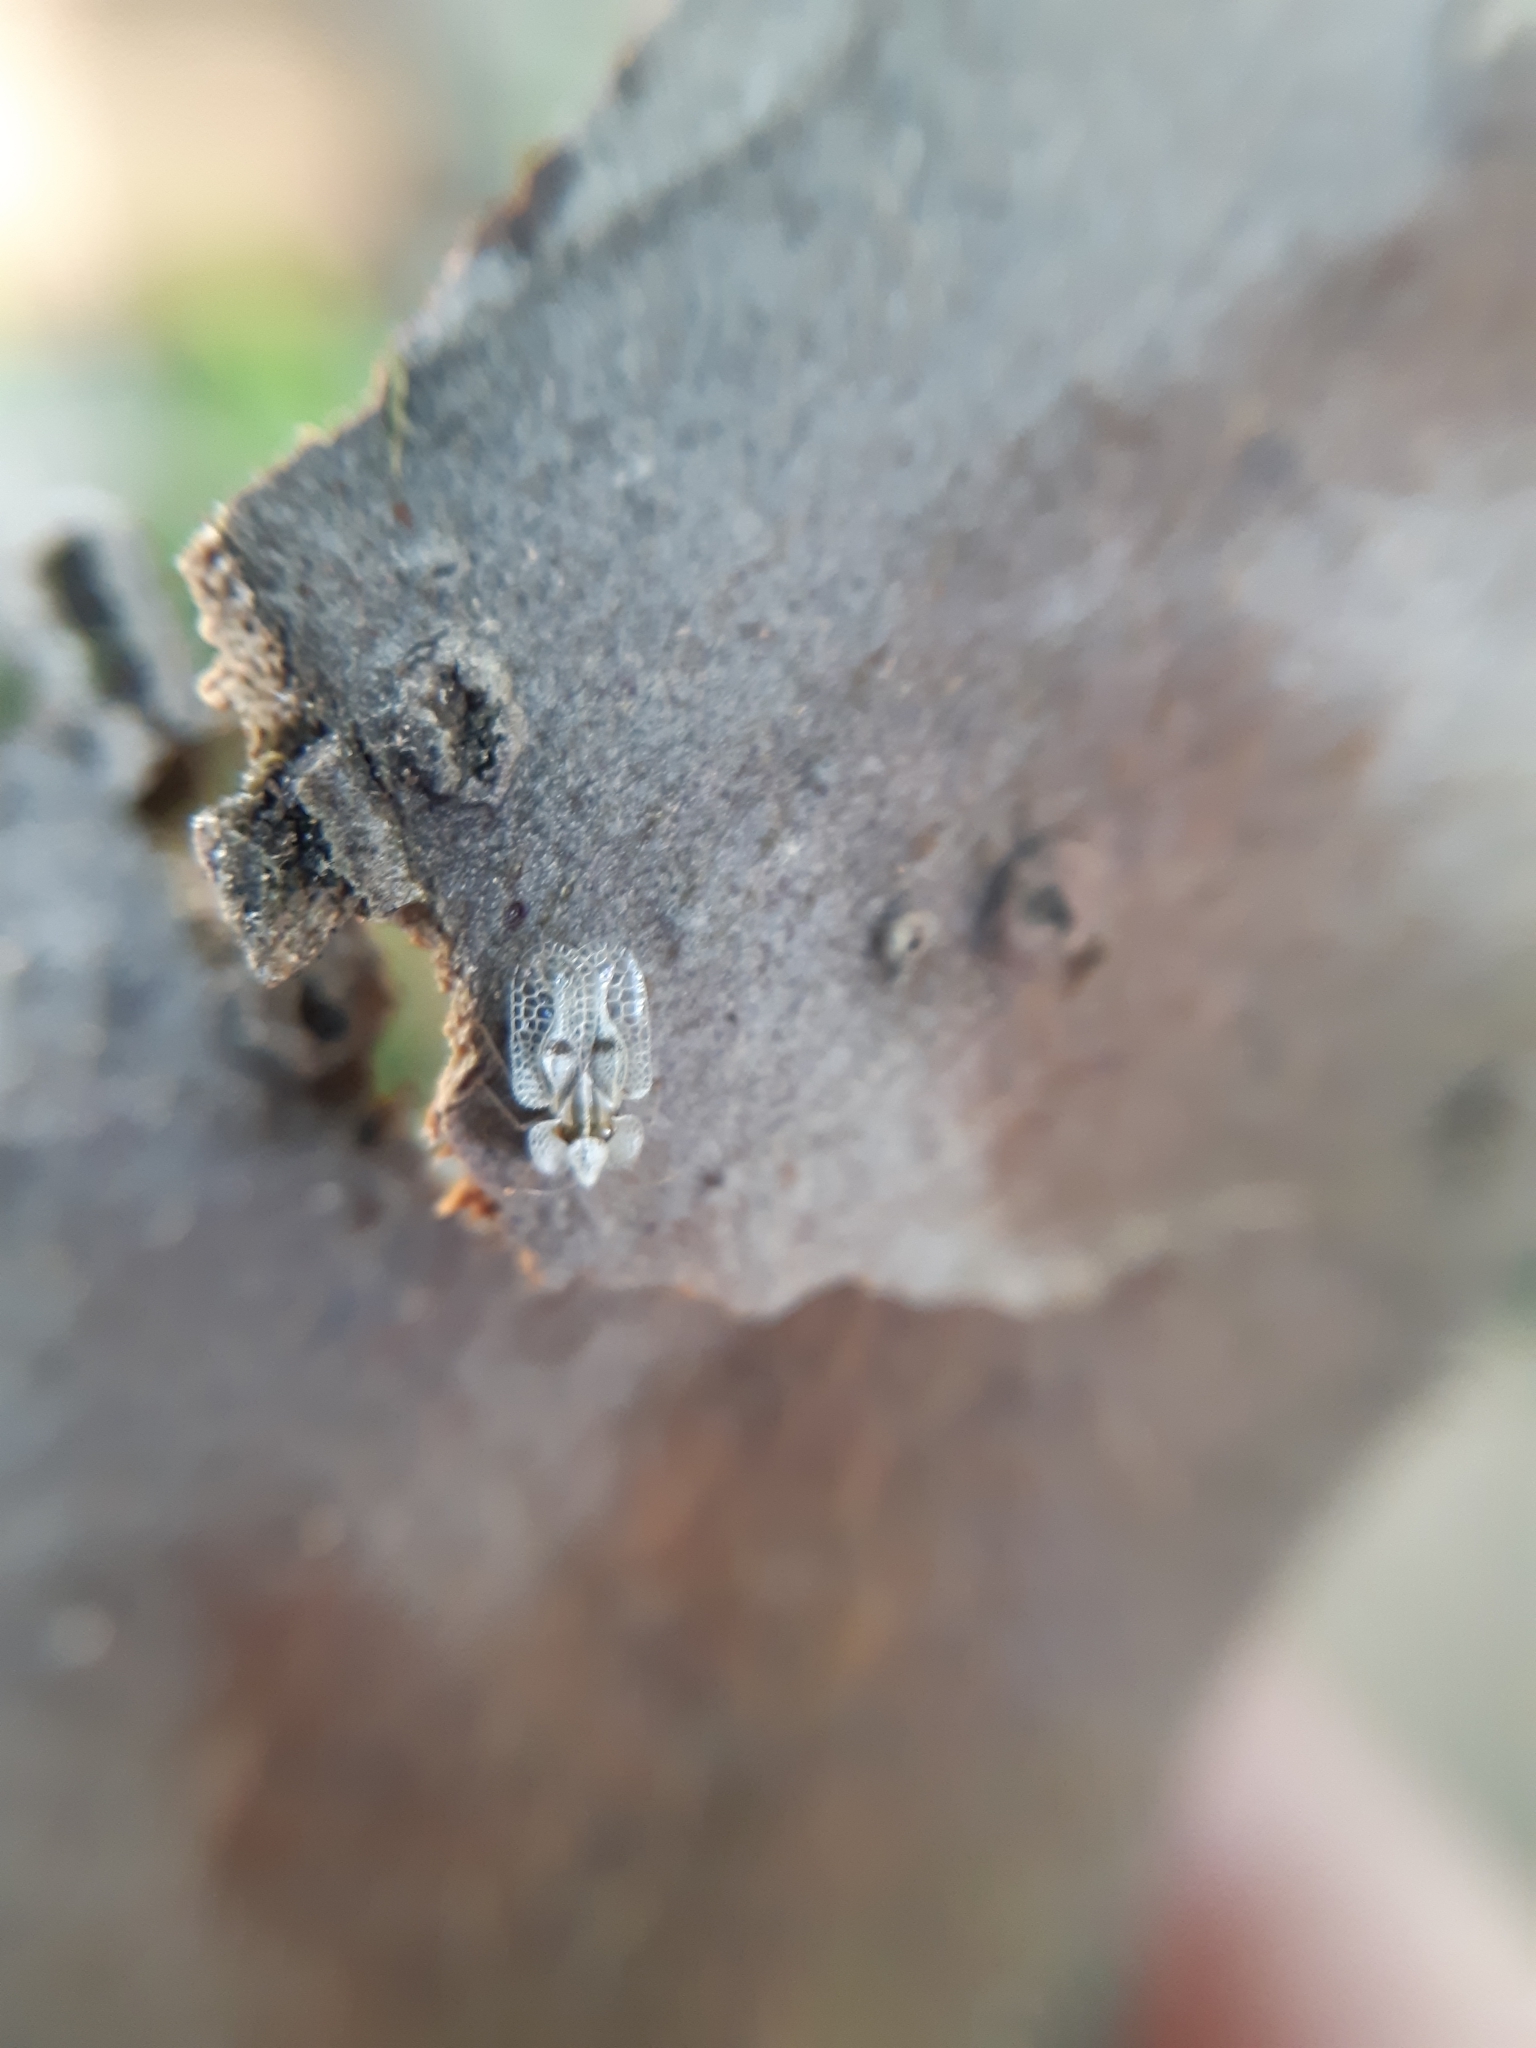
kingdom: Animalia
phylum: Arthropoda
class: Insecta
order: Hemiptera
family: Tingidae
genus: Corythucha
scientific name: Corythucha ciliata
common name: Sycamore lace bug
